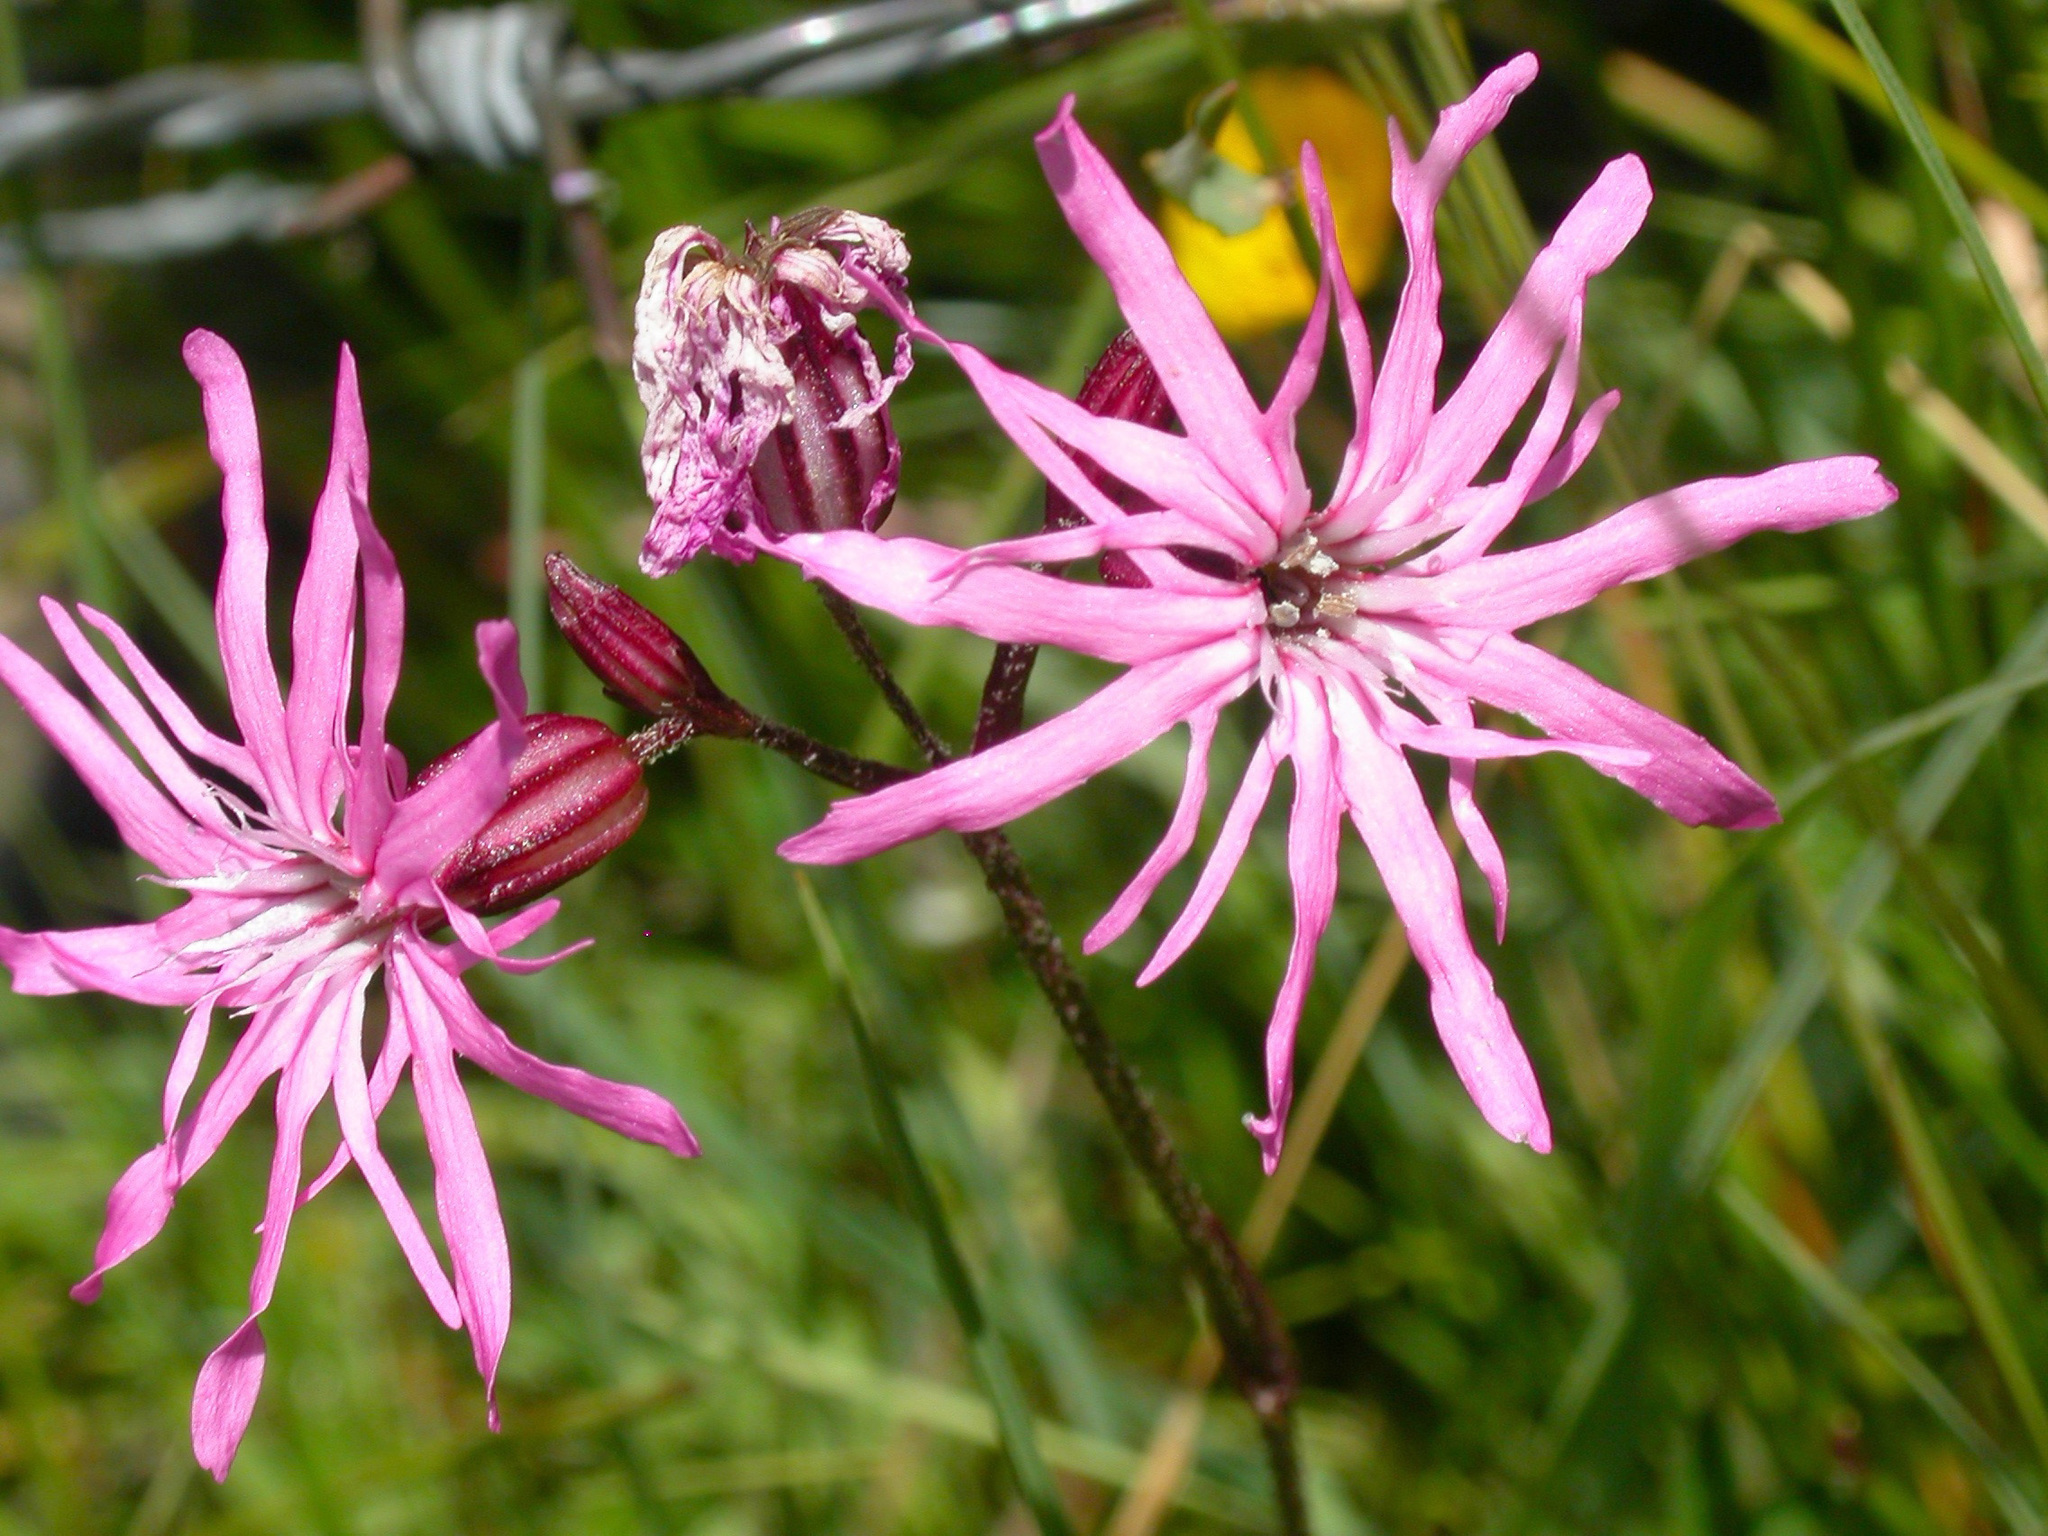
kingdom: Plantae
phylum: Tracheophyta
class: Magnoliopsida
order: Caryophyllales
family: Caryophyllaceae
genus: Silene
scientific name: Silene flos-cuculi
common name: Ragged-robin
